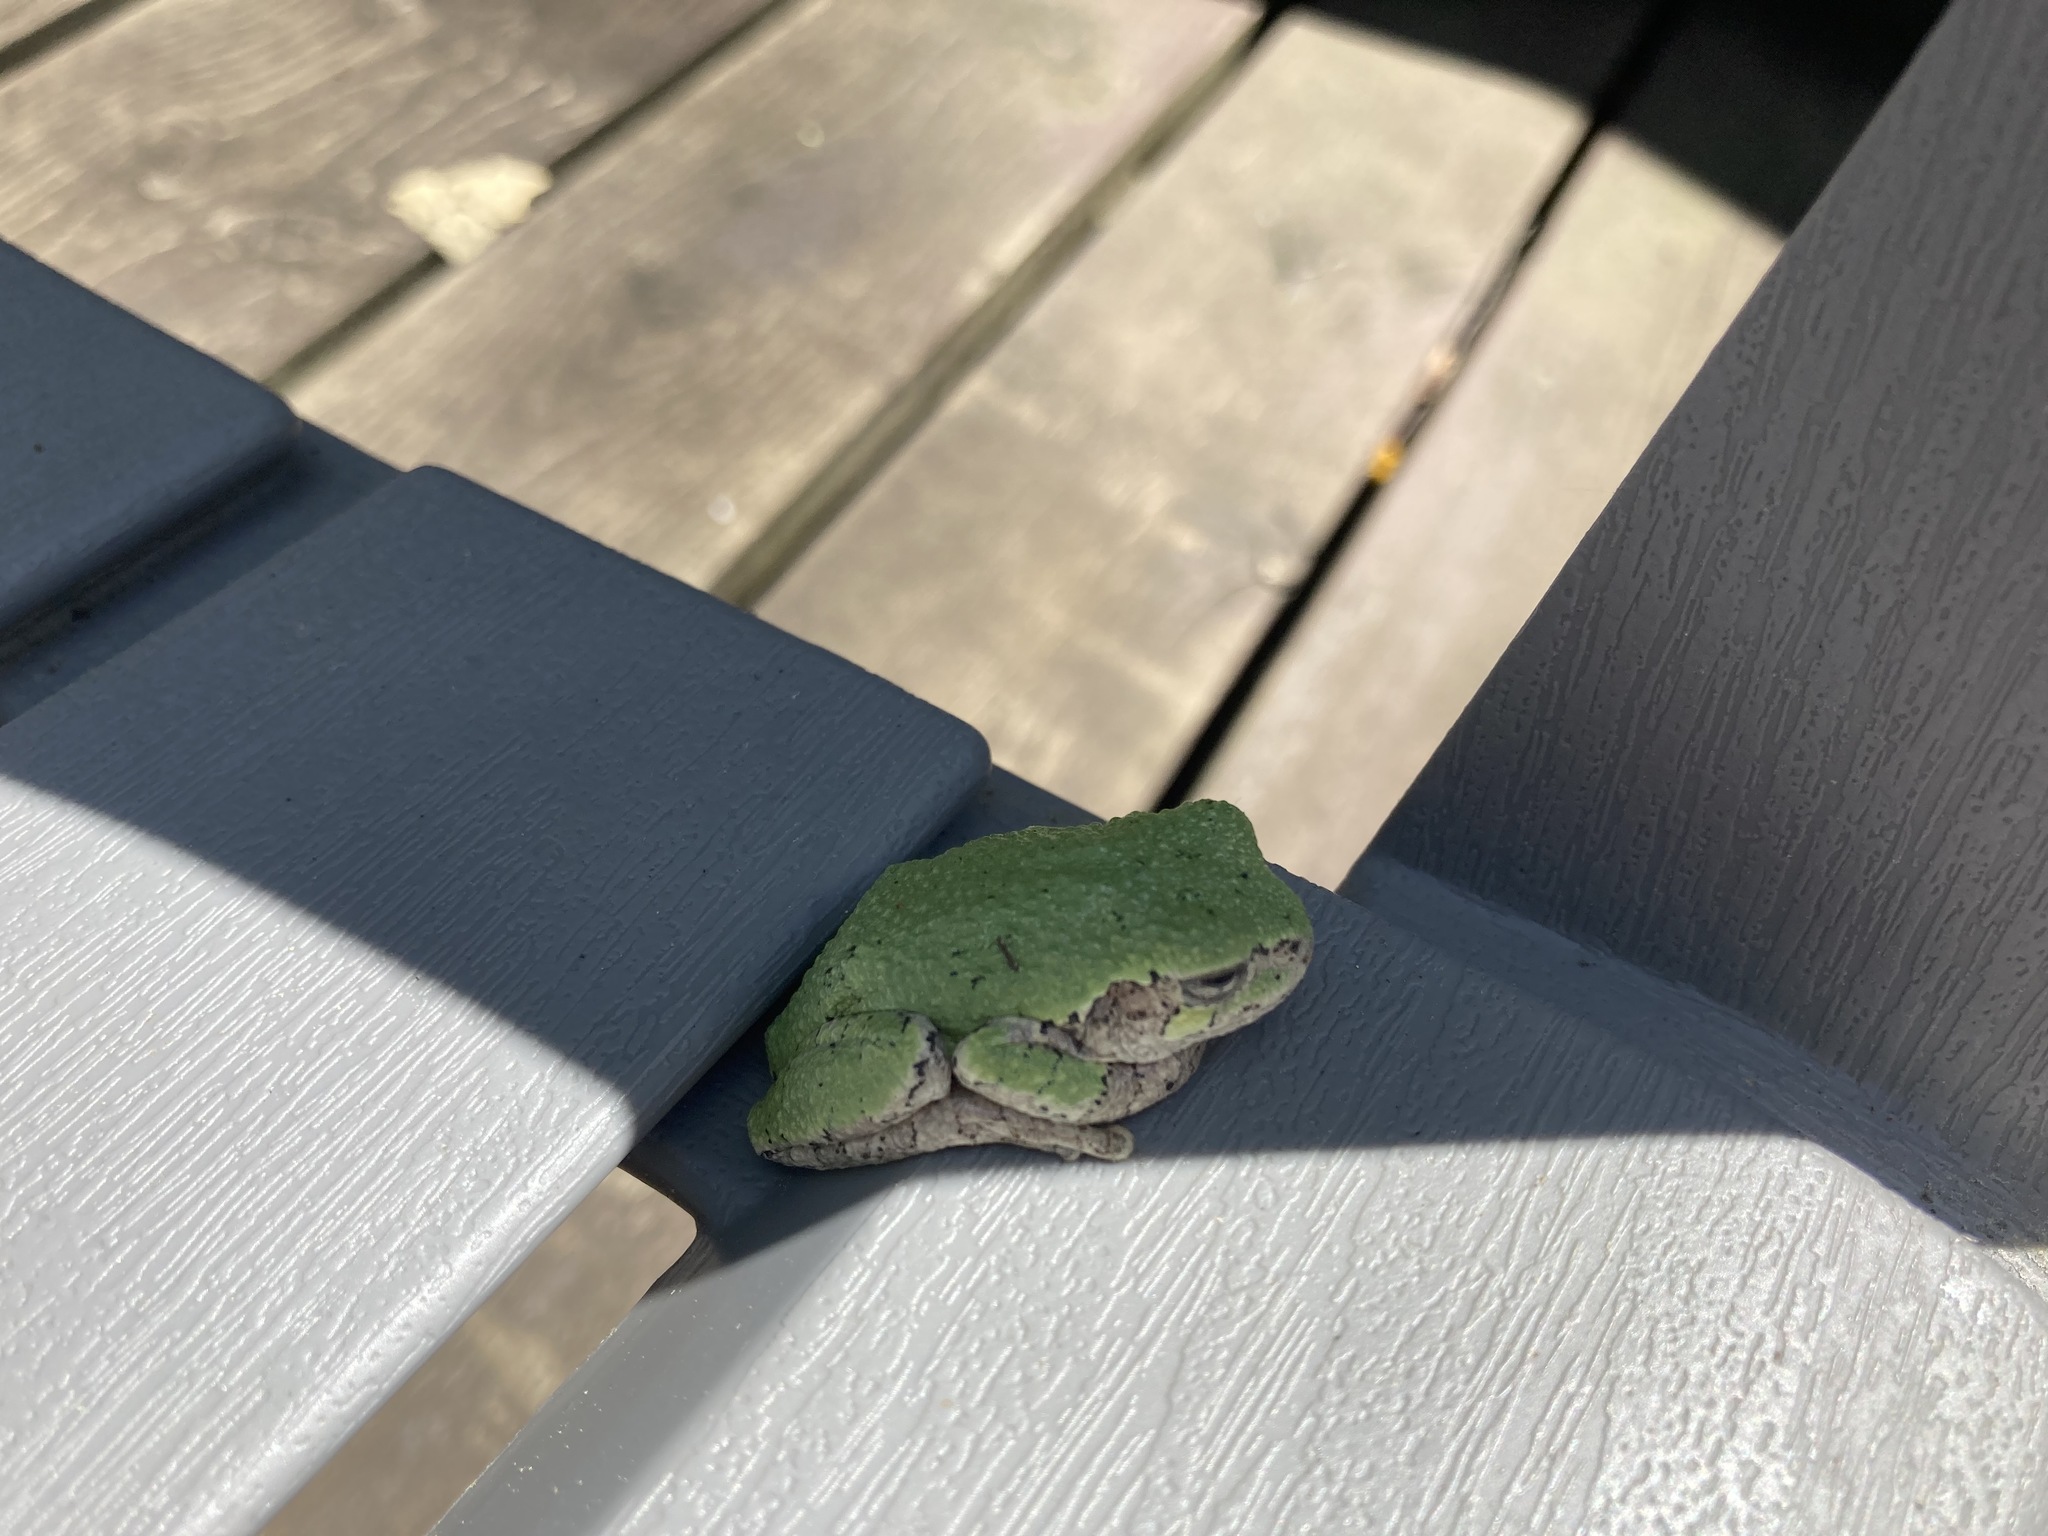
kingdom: Animalia
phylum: Chordata
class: Amphibia
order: Anura
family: Hylidae
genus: Dryophytes
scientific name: Dryophytes versicolor
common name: Gray treefrog
